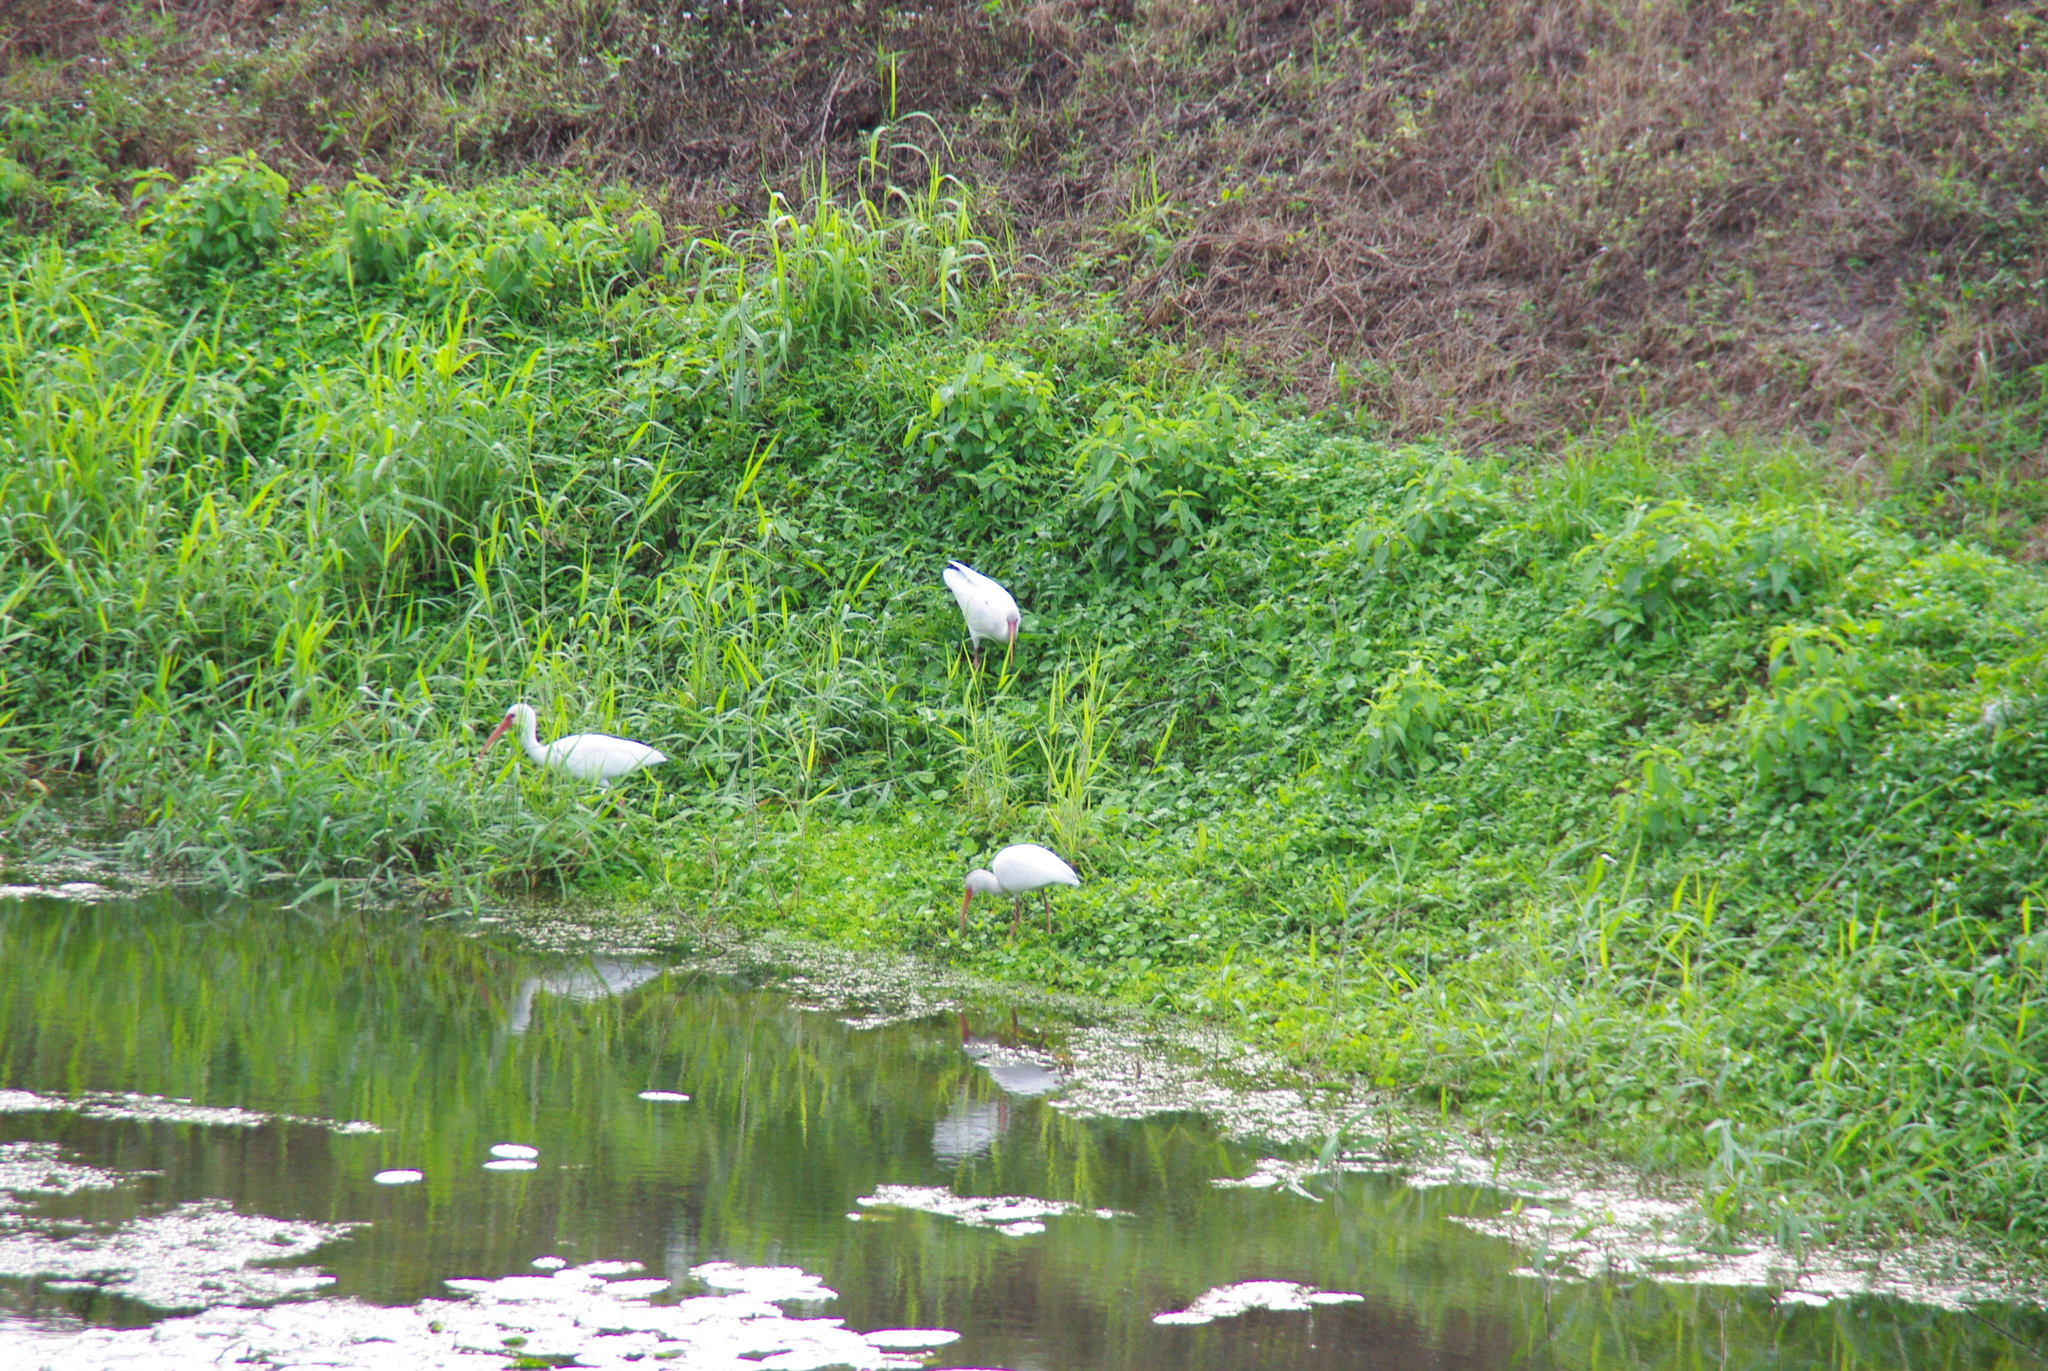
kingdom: Animalia
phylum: Chordata
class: Aves
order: Pelecaniformes
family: Threskiornithidae
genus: Eudocimus
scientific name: Eudocimus albus
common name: White ibis
